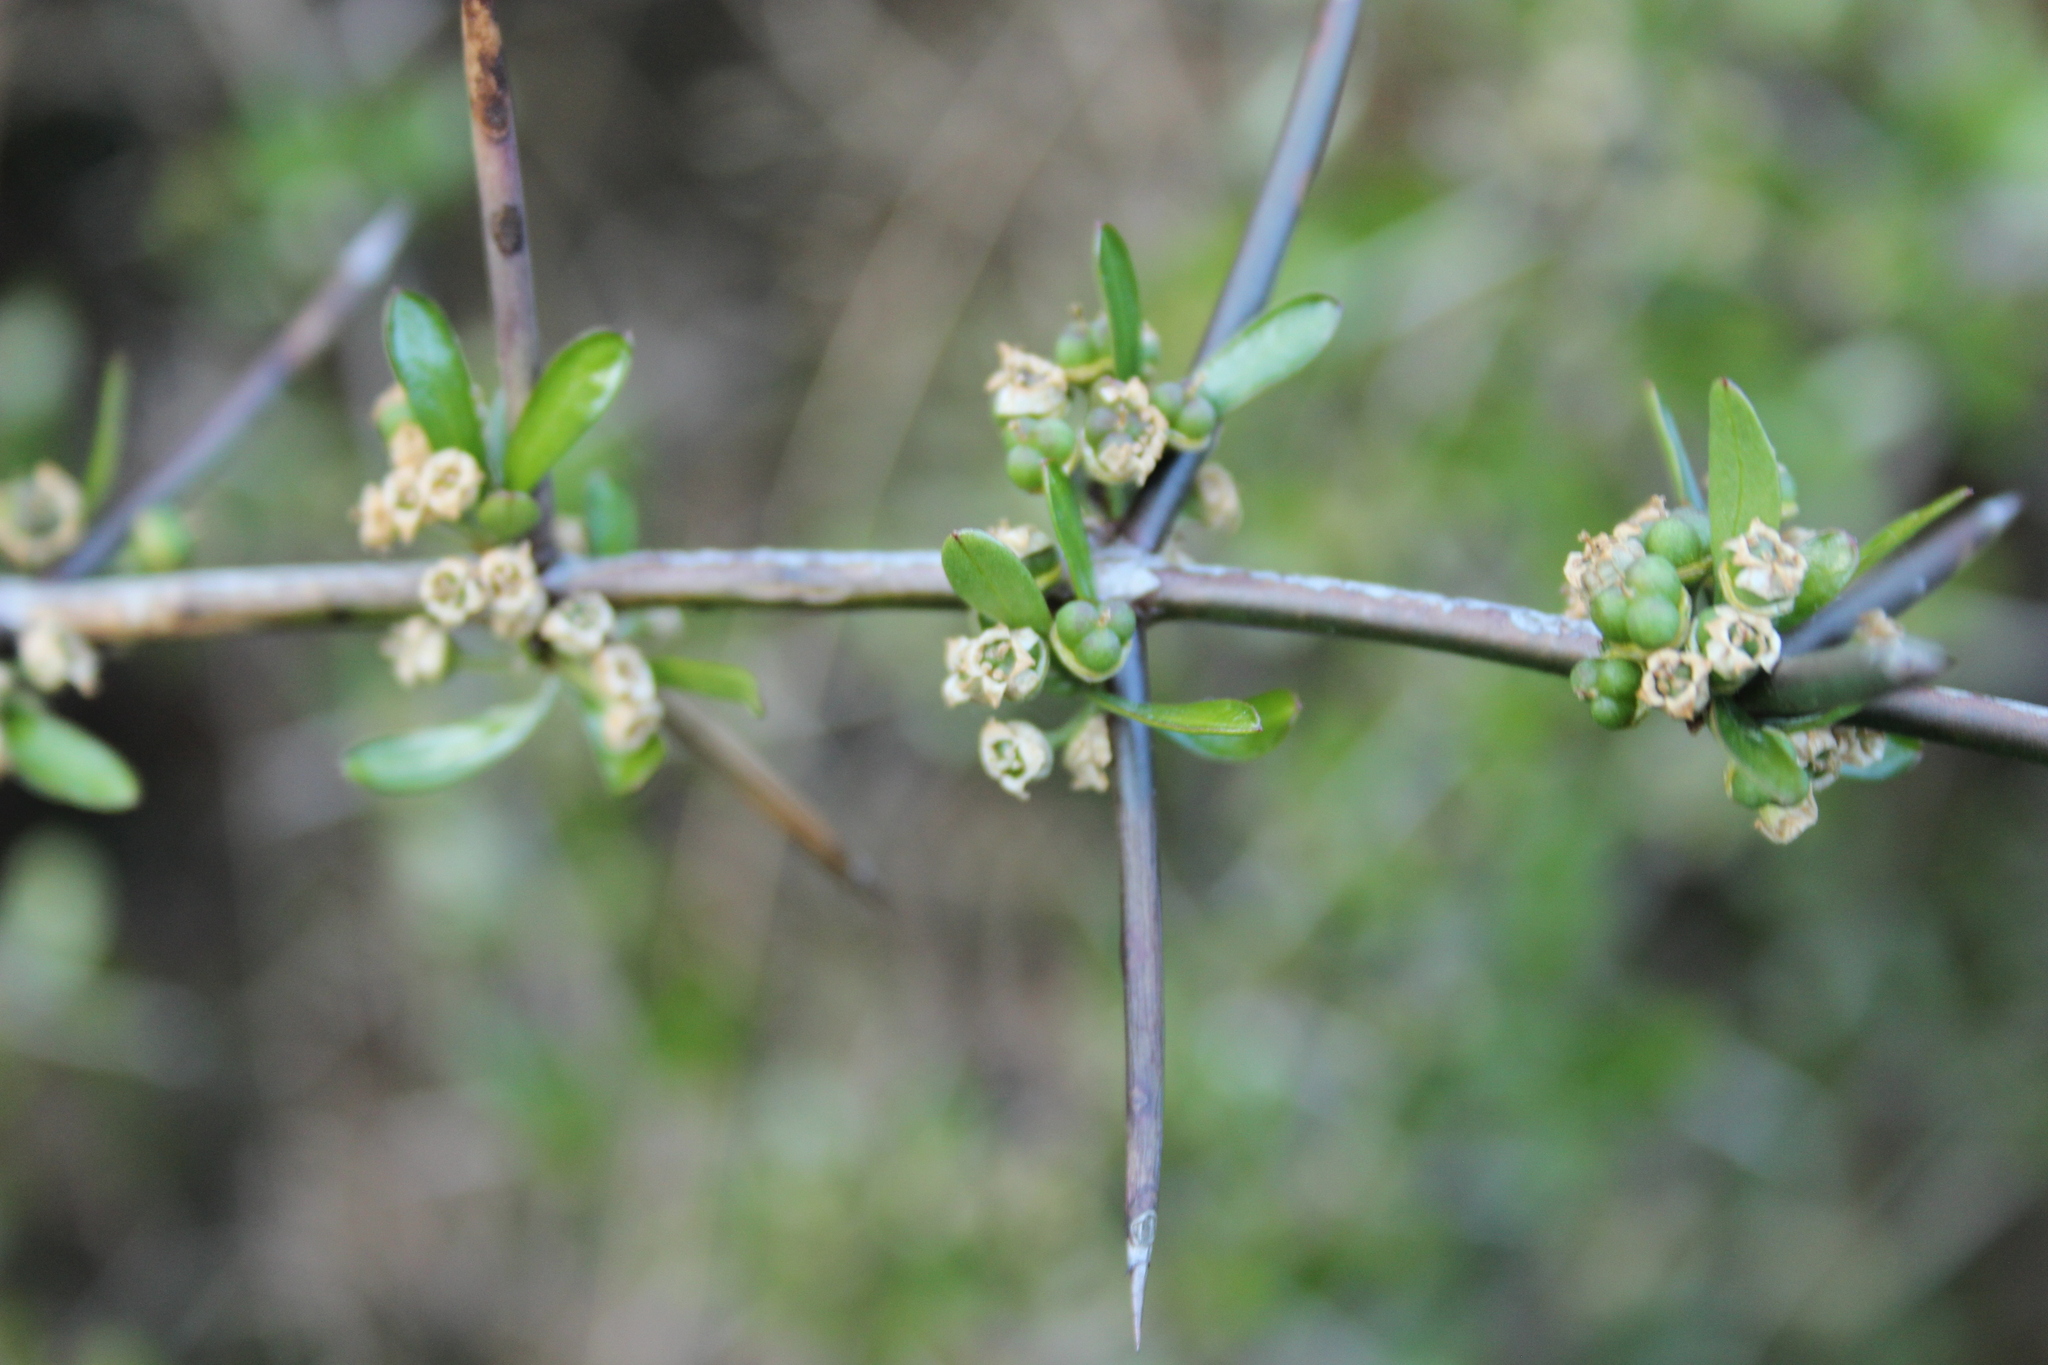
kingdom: Plantae
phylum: Tracheophyta
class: Magnoliopsida
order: Rosales
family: Rhamnaceae
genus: Discaria
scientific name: Discaria toumatou
